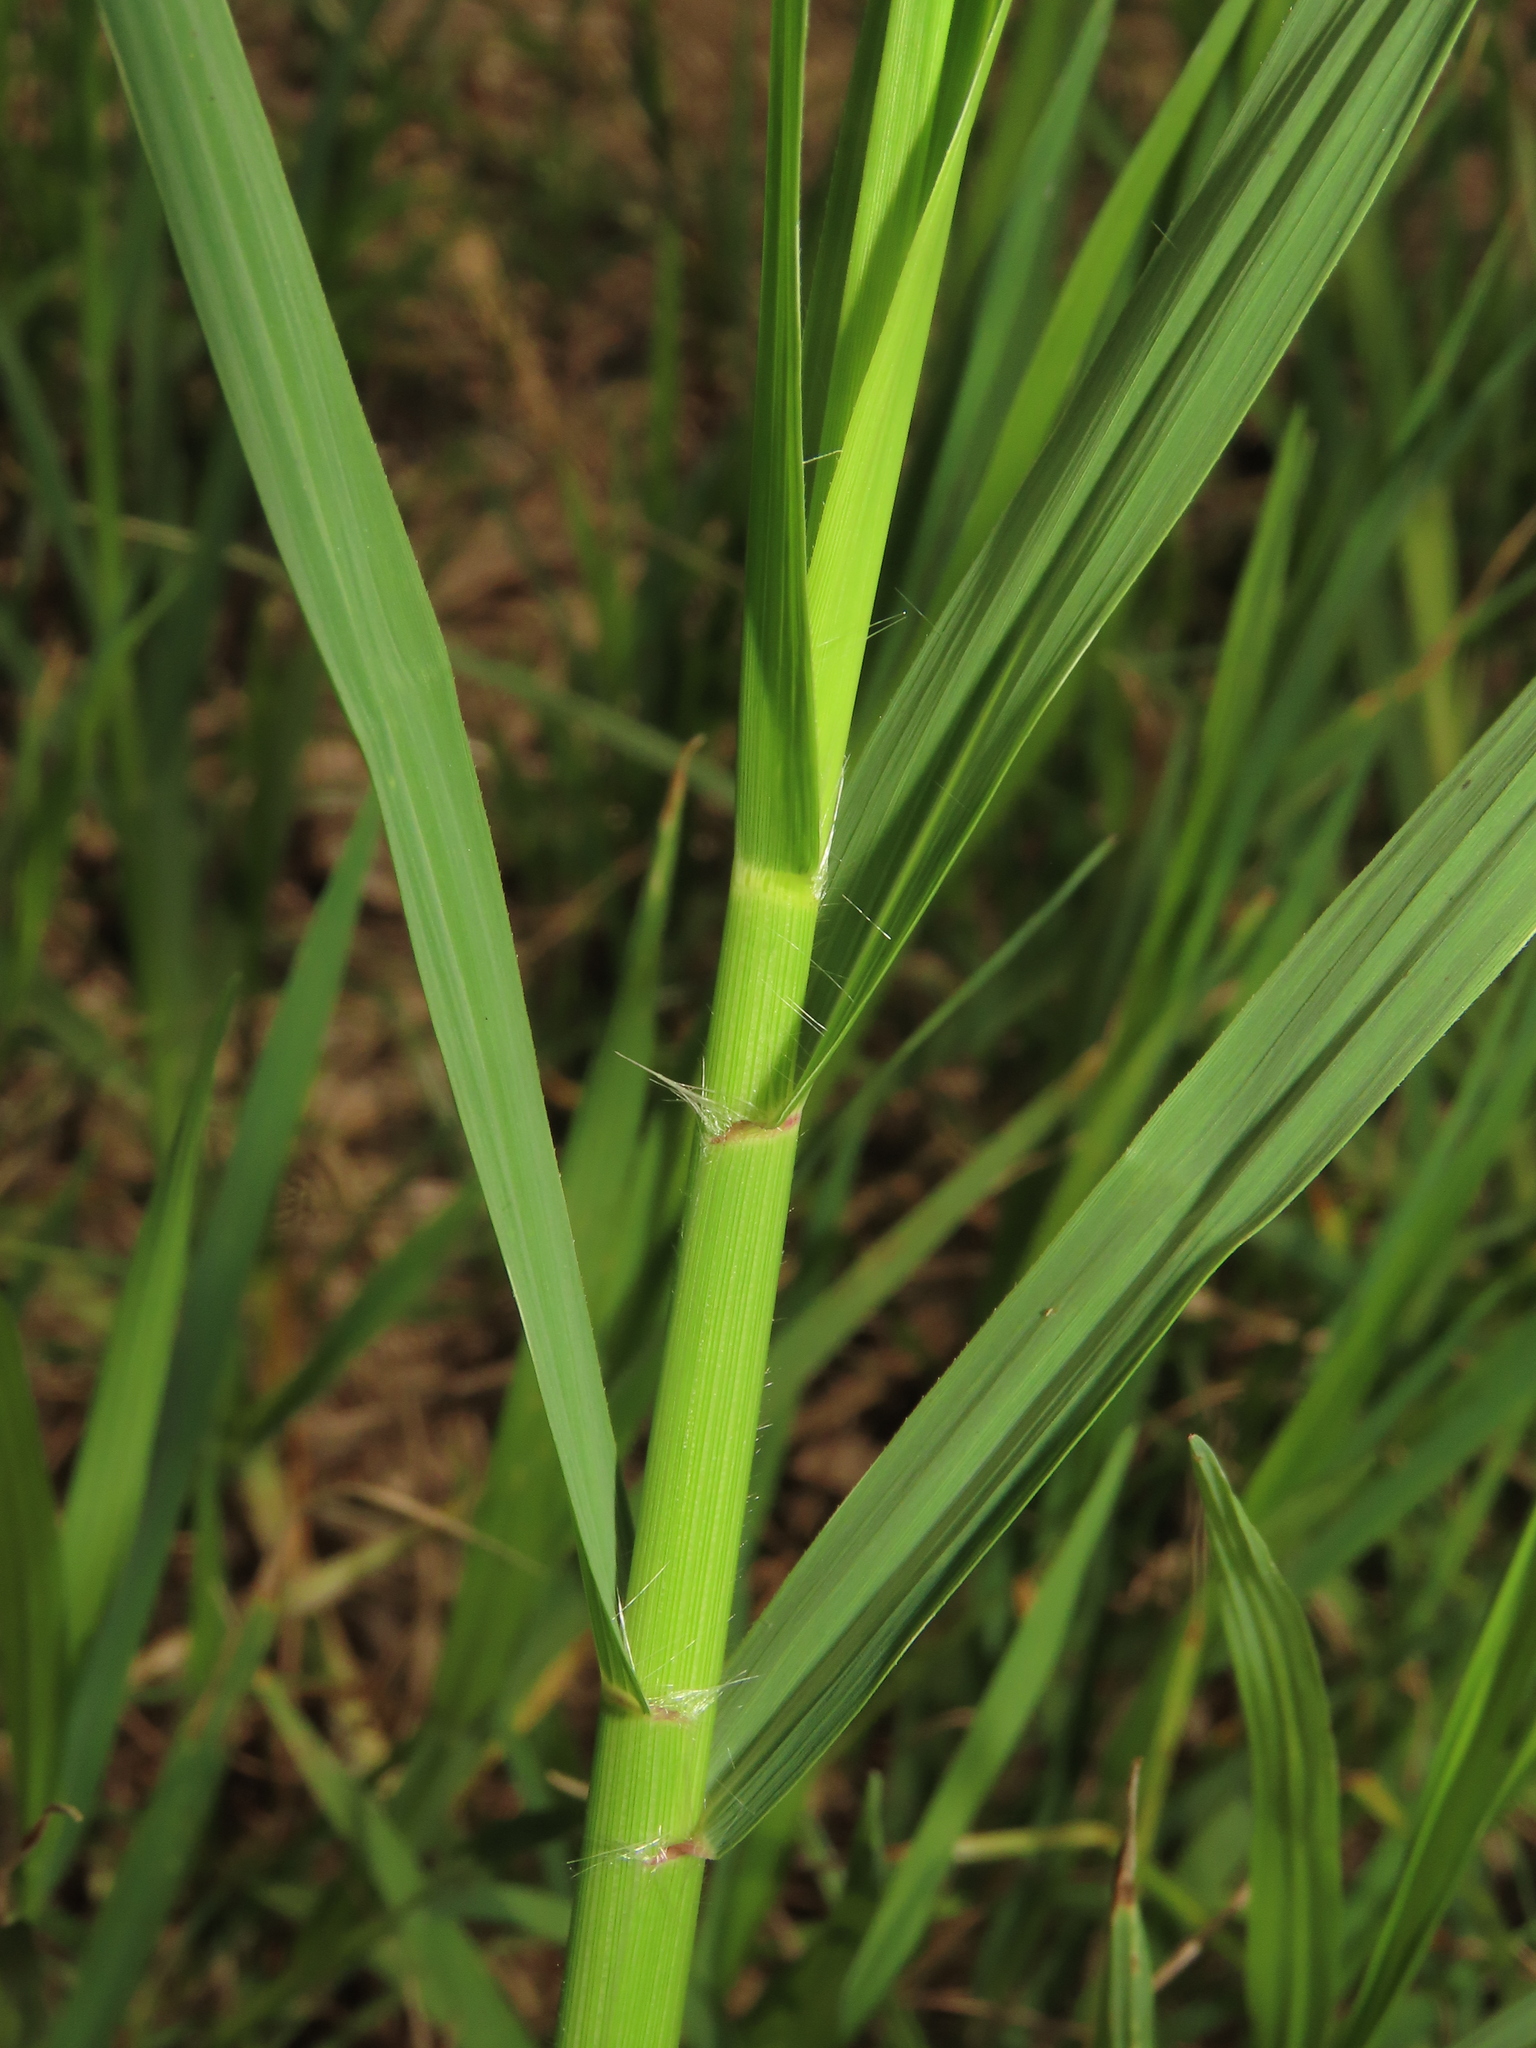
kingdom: Plantae
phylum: Tracheophyta
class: Liliopsida
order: Poales
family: Poaceae
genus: Cynodon
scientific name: Cynodon nlemfuensis
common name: African bermudagrass
